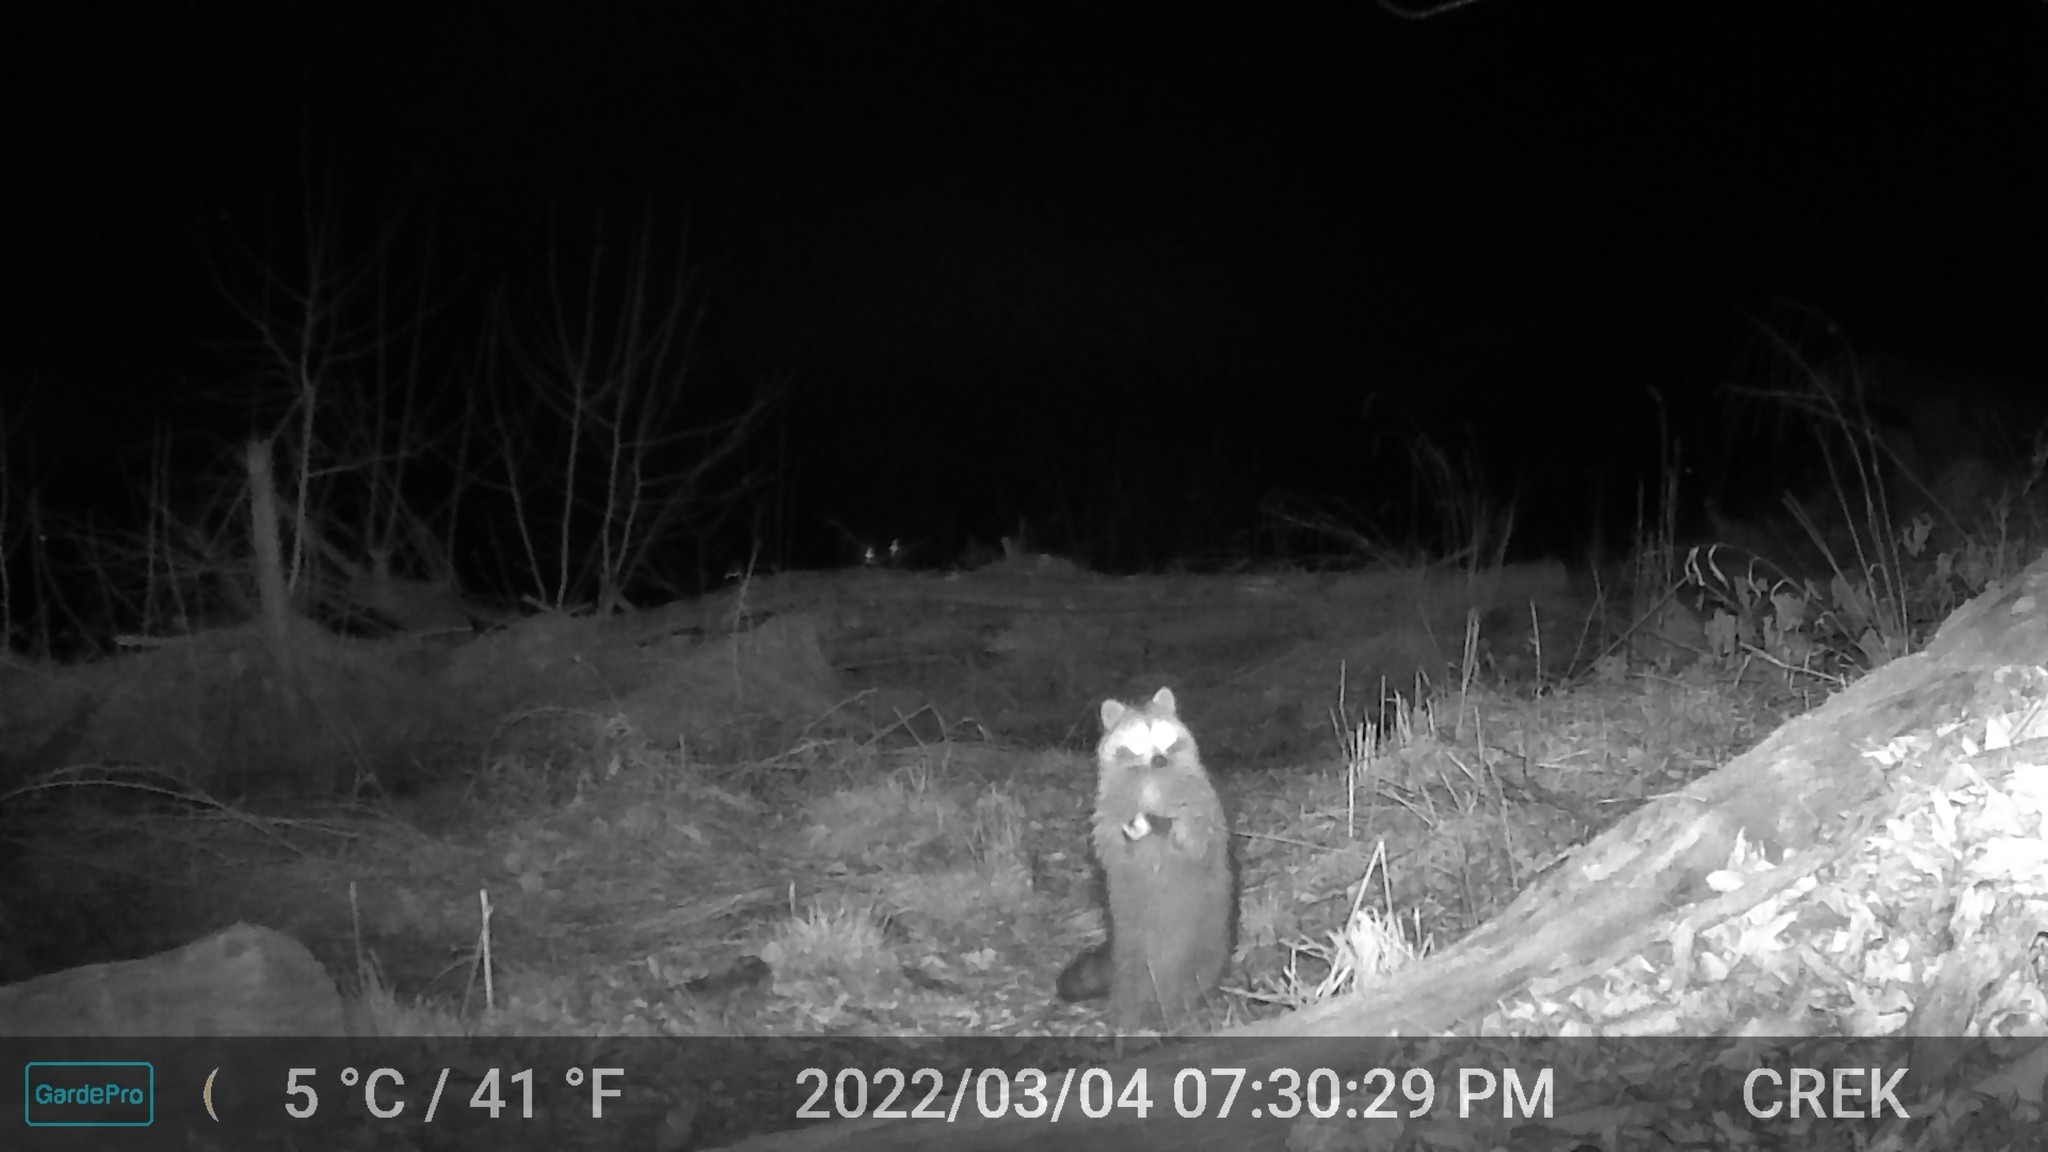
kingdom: Animalia
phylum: Chordata
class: Mammalia
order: Carnivora
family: Procyonidae
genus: Procyon
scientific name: Procyon lotor
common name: Raccoon
